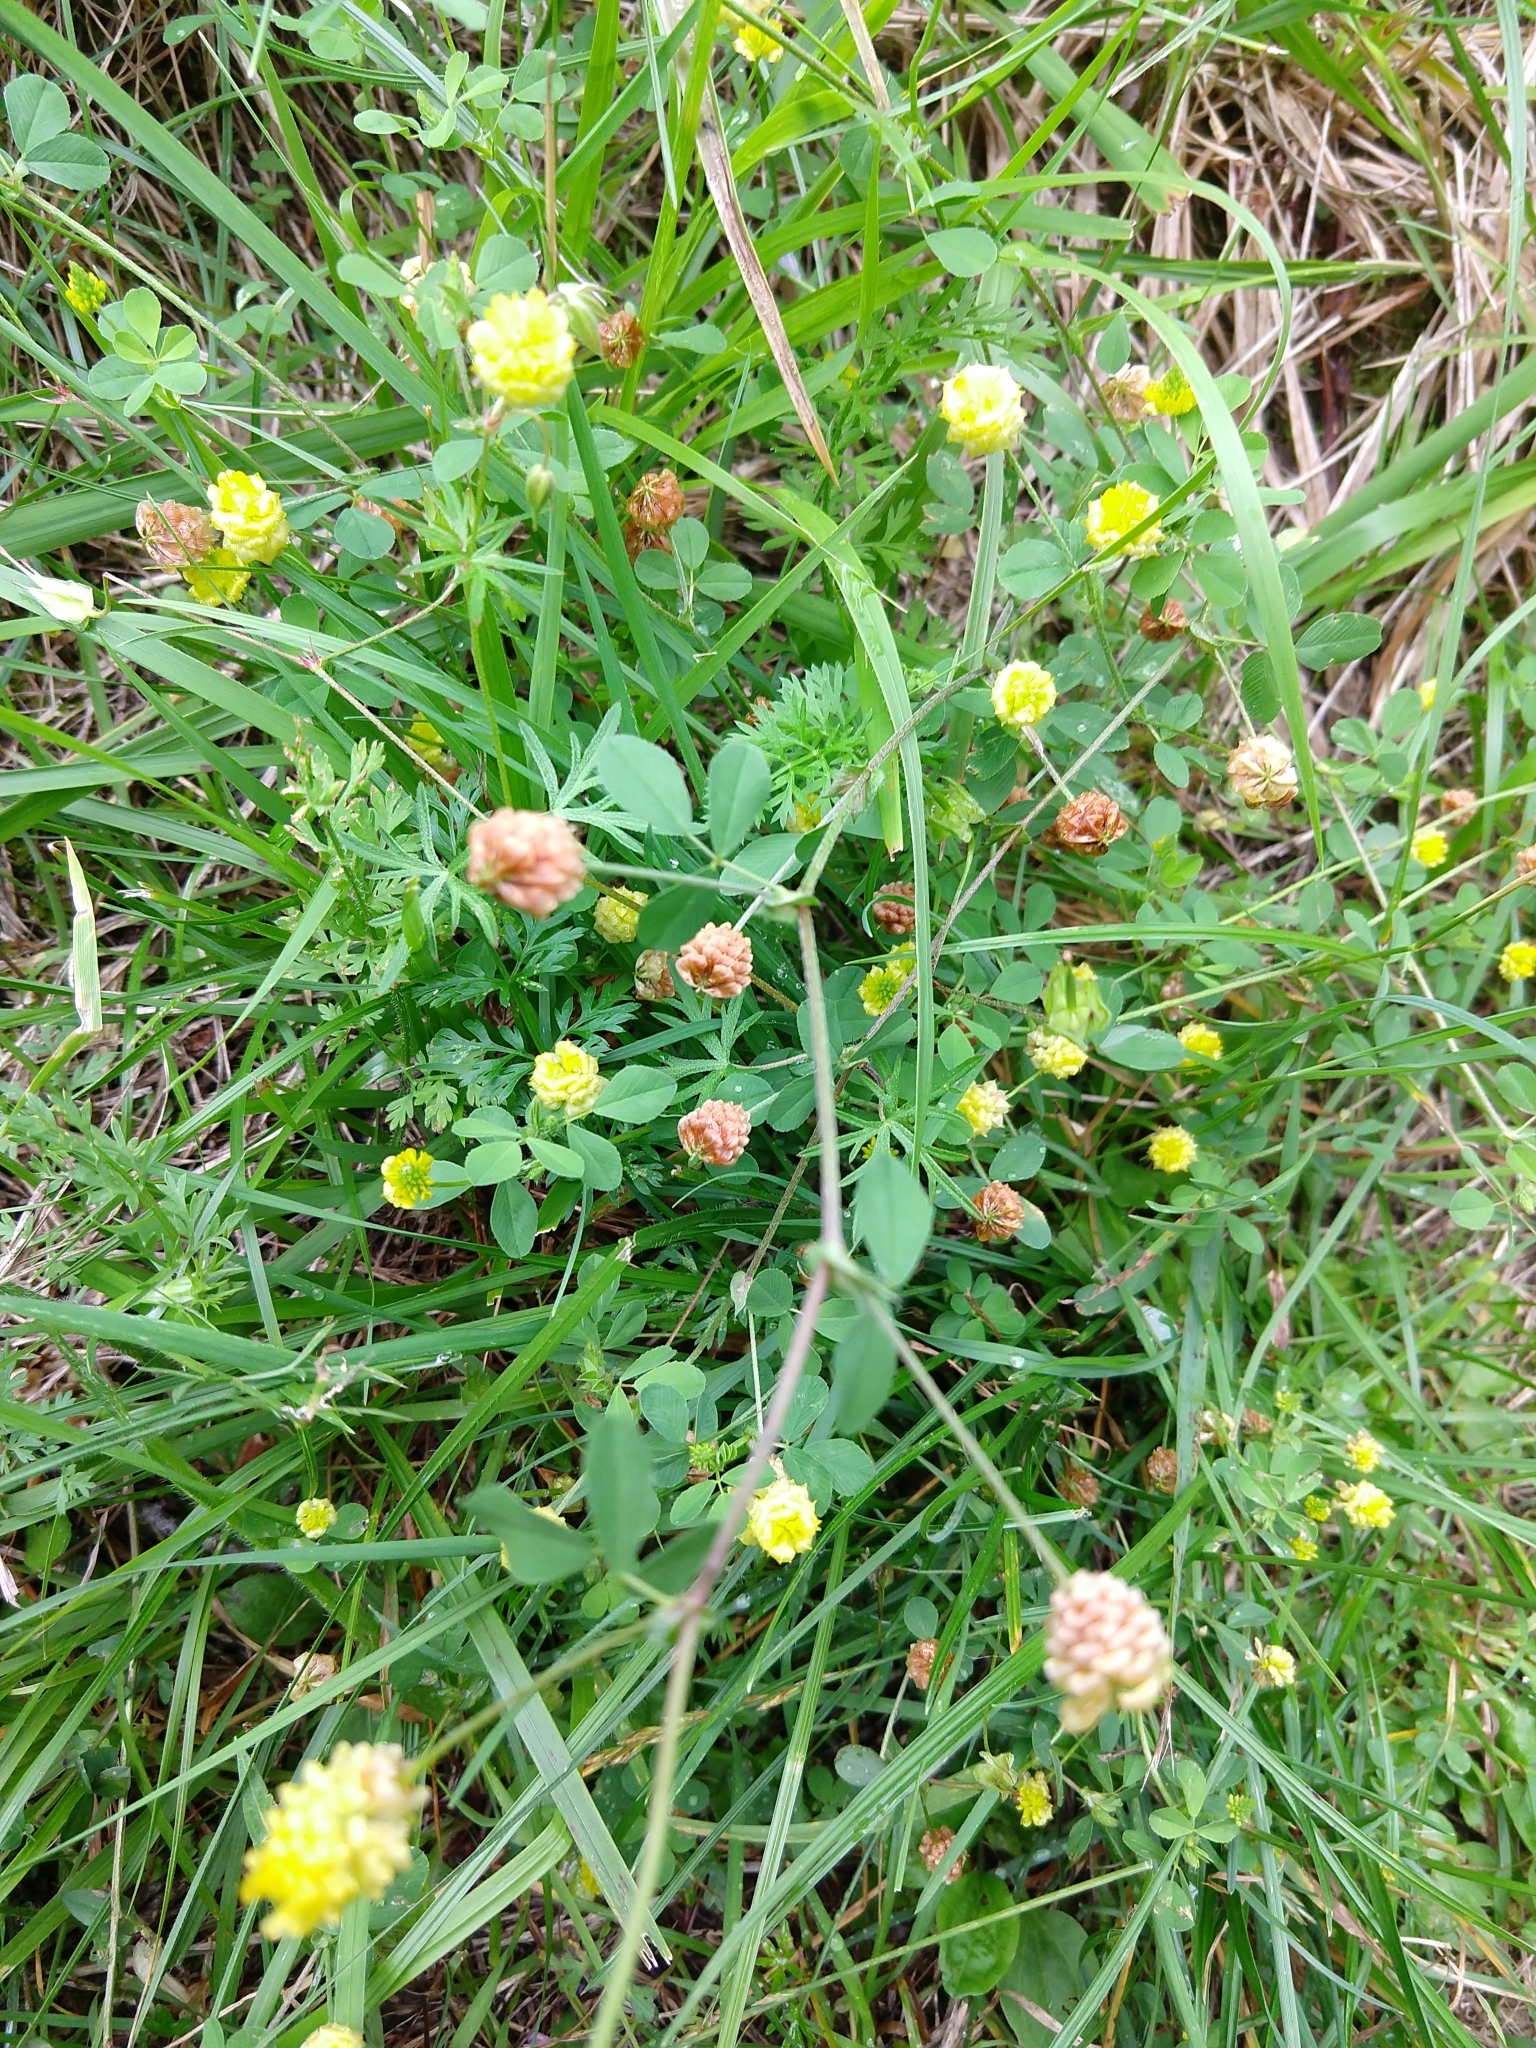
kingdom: Plantae
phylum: Tracheophyta
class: Magnoliopsida
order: Fabales
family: Fabaceae
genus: Trifolium
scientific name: Trifolium campestre
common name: Field clover
